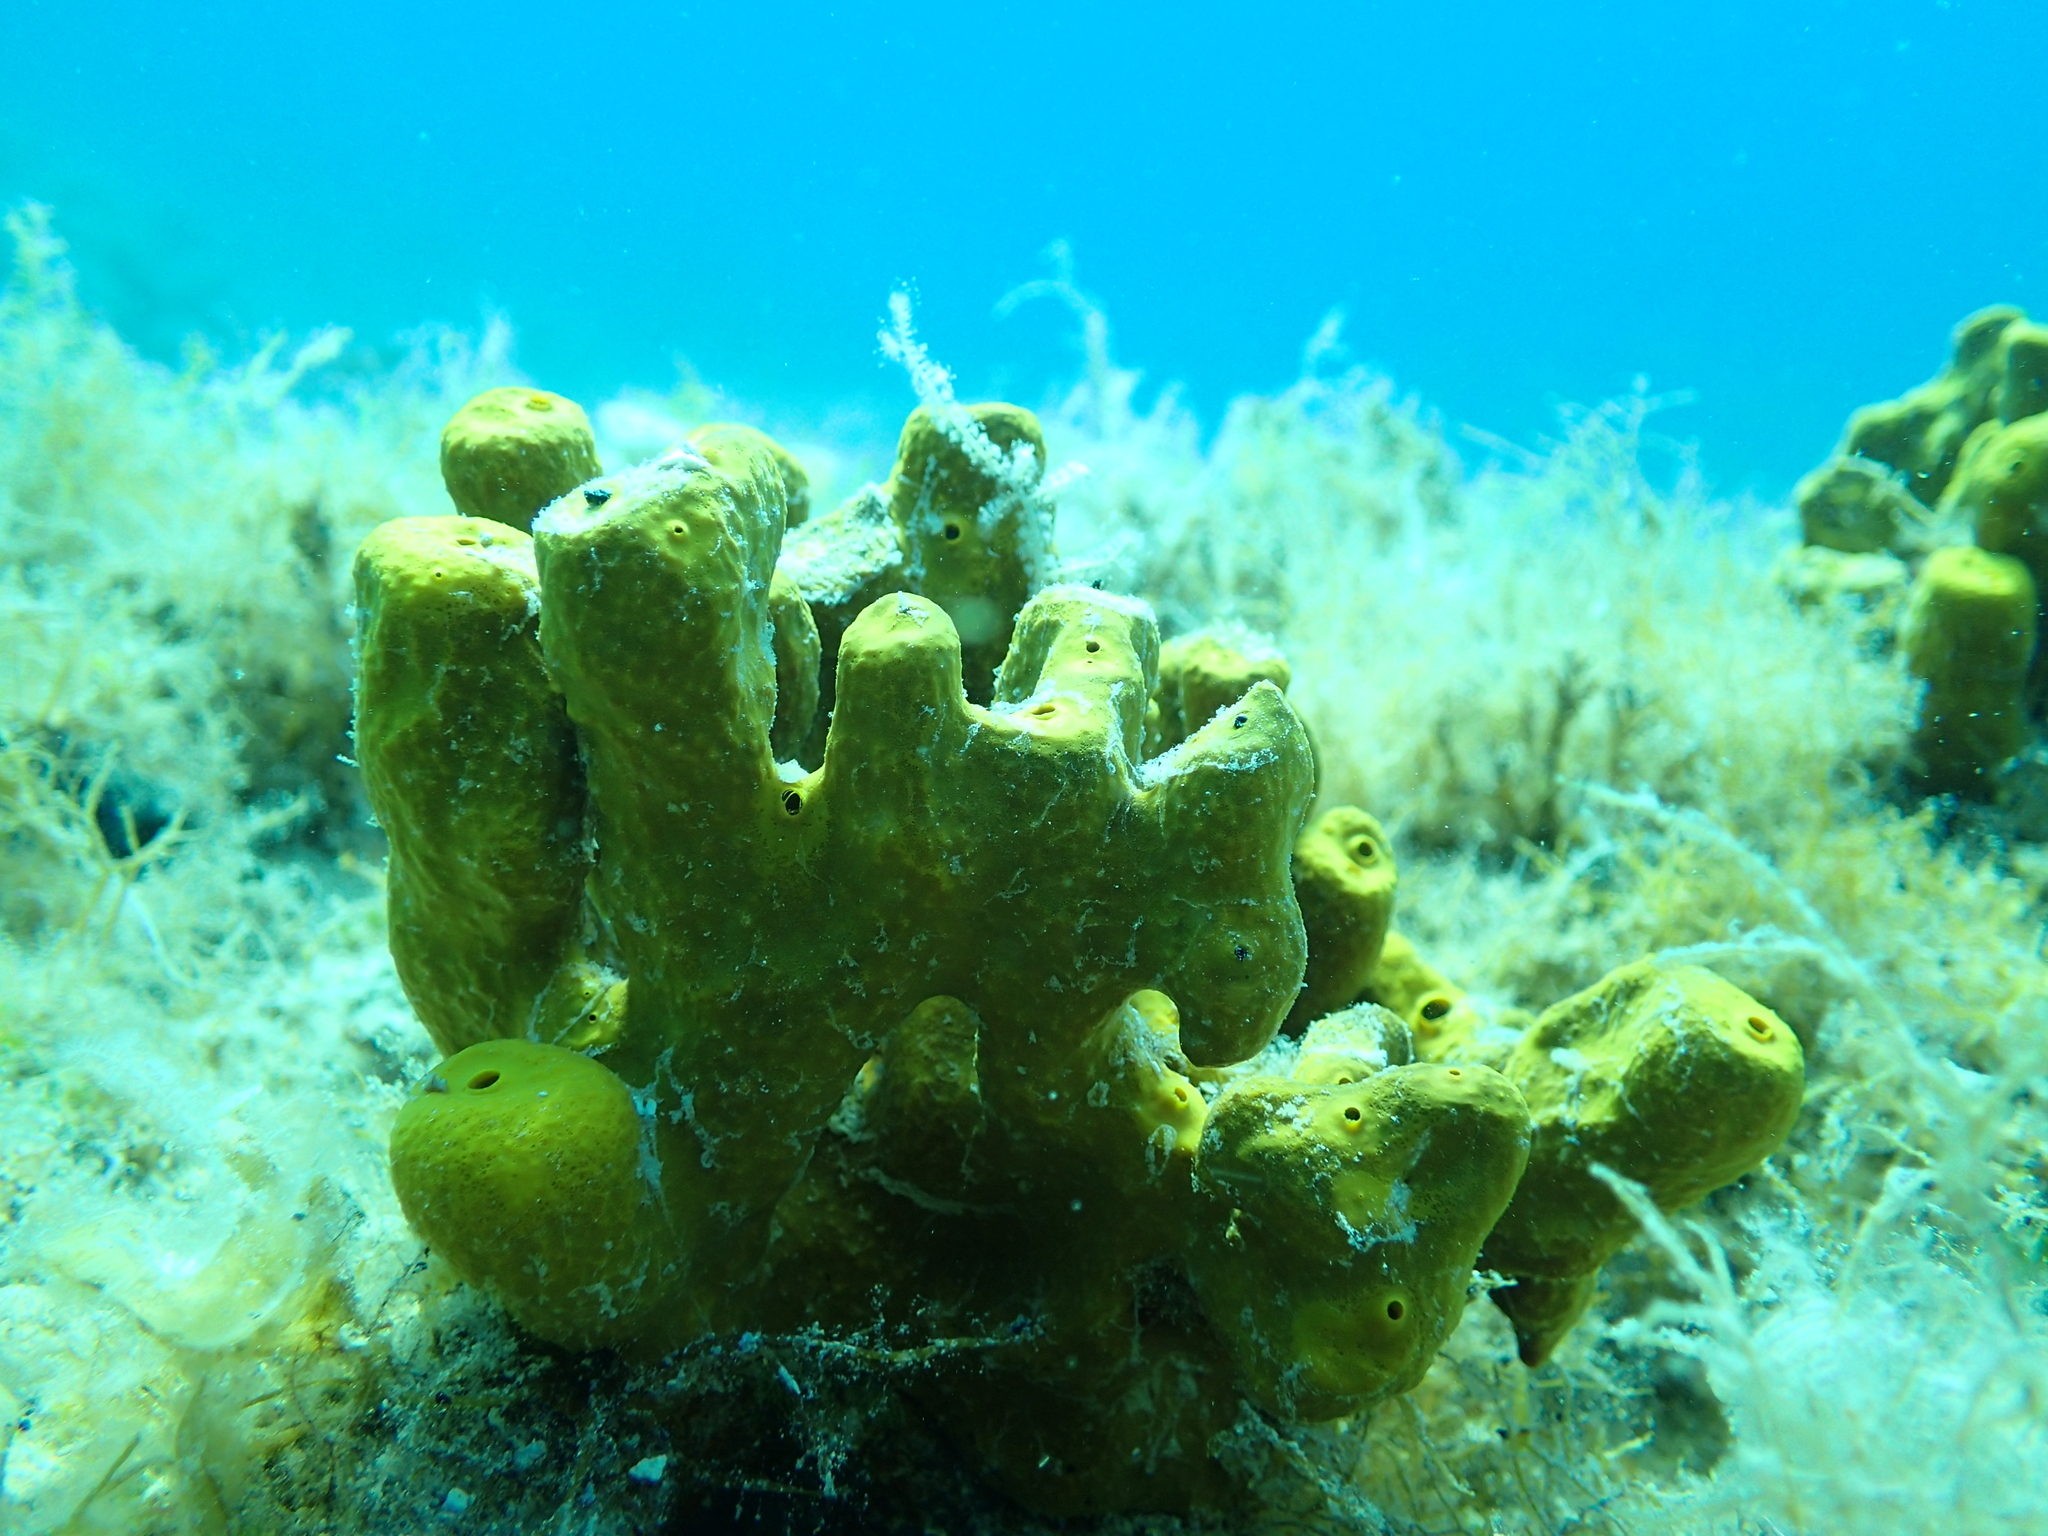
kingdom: Animalia
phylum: Porifera
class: Demospongiae
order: Verongiida
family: Aplysinidae
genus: Aplysina
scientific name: Aplysina aerophoba
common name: Aureate sponge
